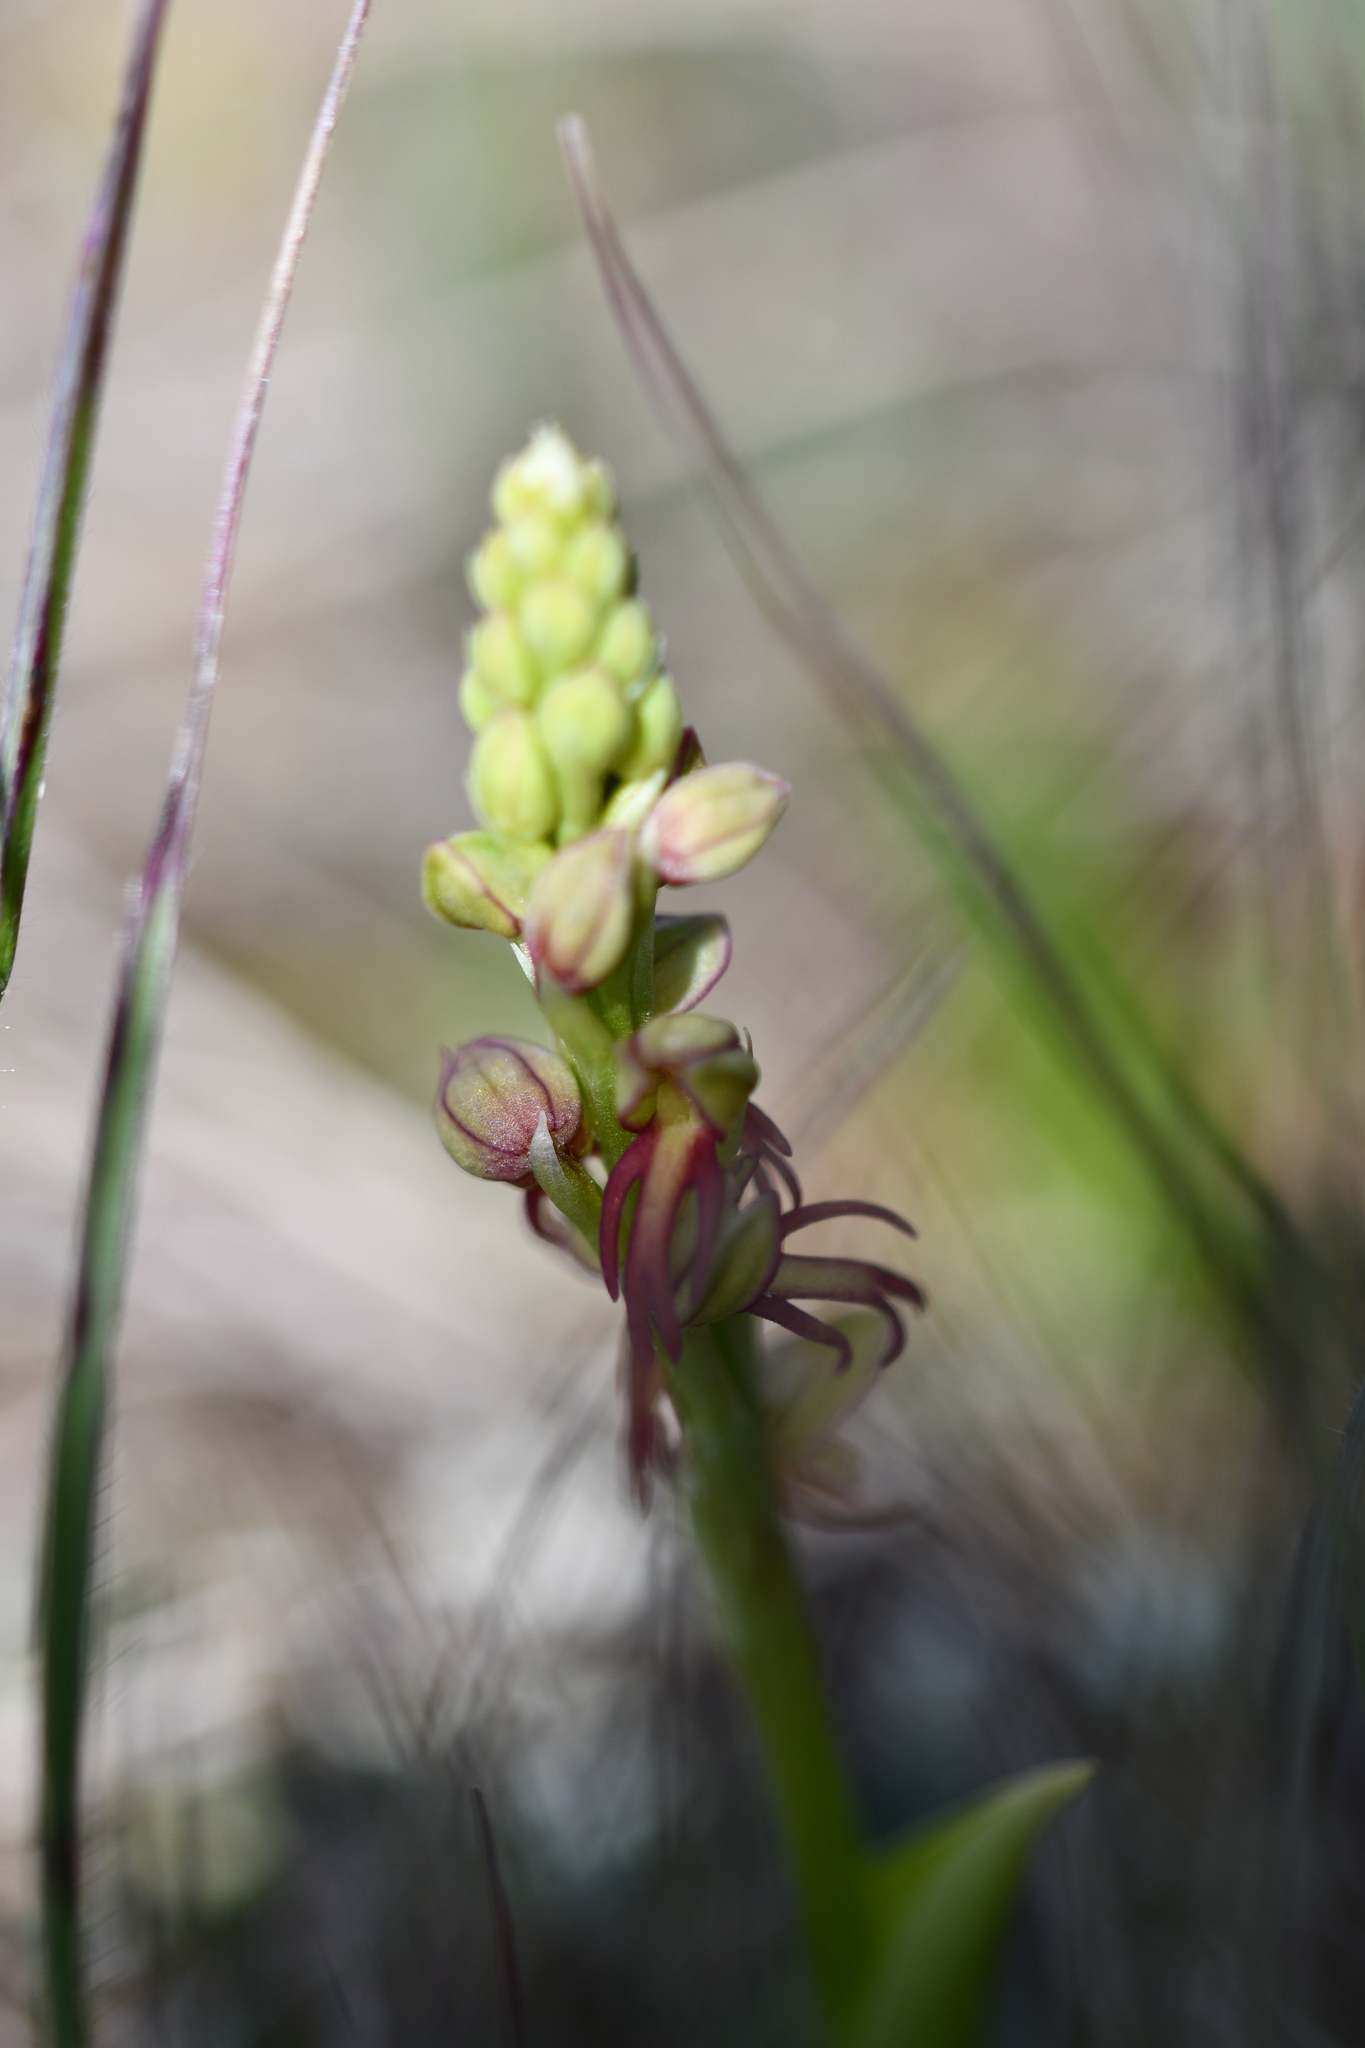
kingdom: Plantae
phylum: Tracheophyta
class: Liliopsida
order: Asparagales
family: Orchidaceae
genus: Orchis
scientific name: Orchis anthropophora
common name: Man orchid
